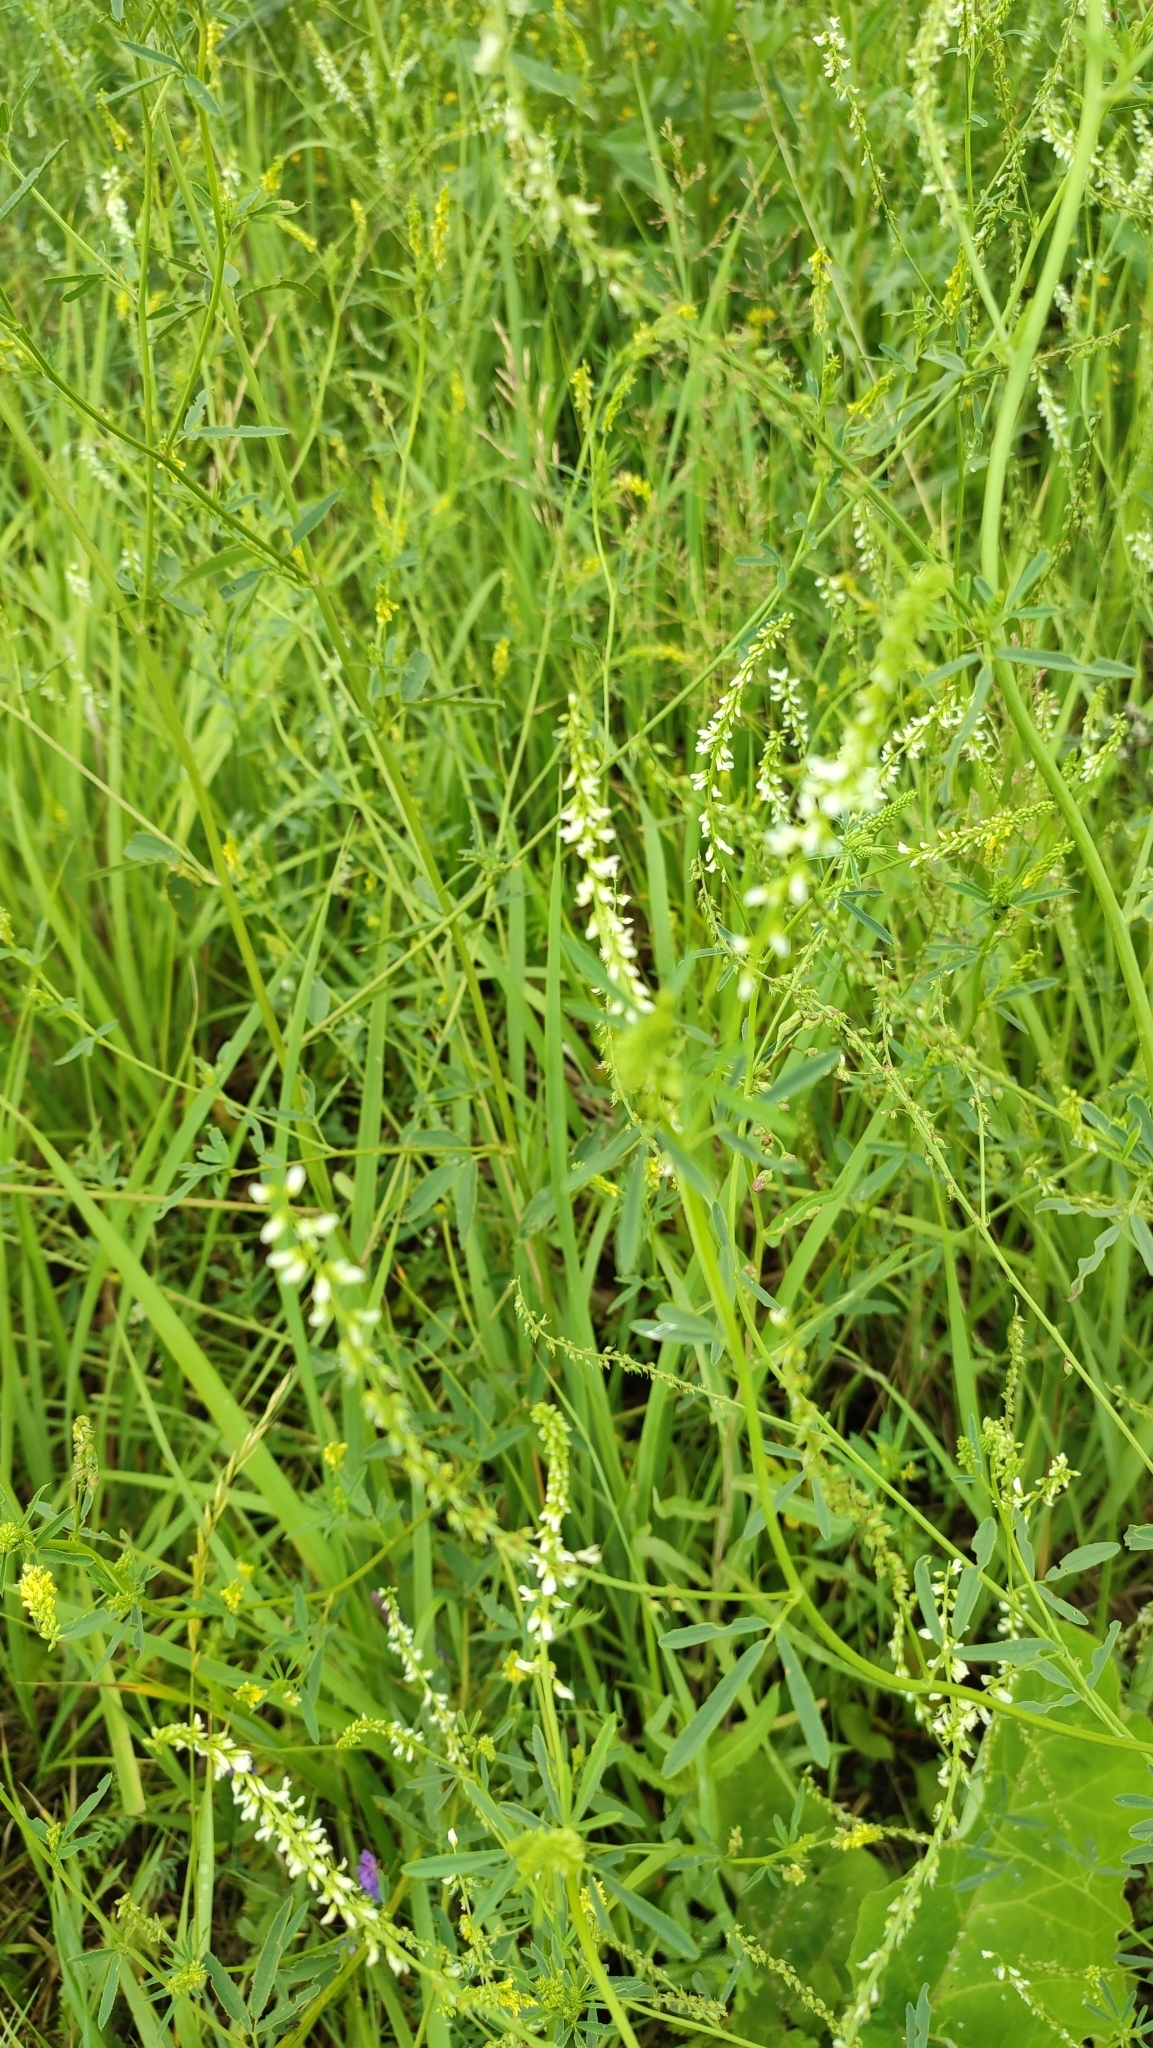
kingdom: Plantae
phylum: Tracheophyta
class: Magnoliopsida
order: Fabales
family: Fabaceae
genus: Melilotus
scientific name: Melilotus albus
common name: White melilot
